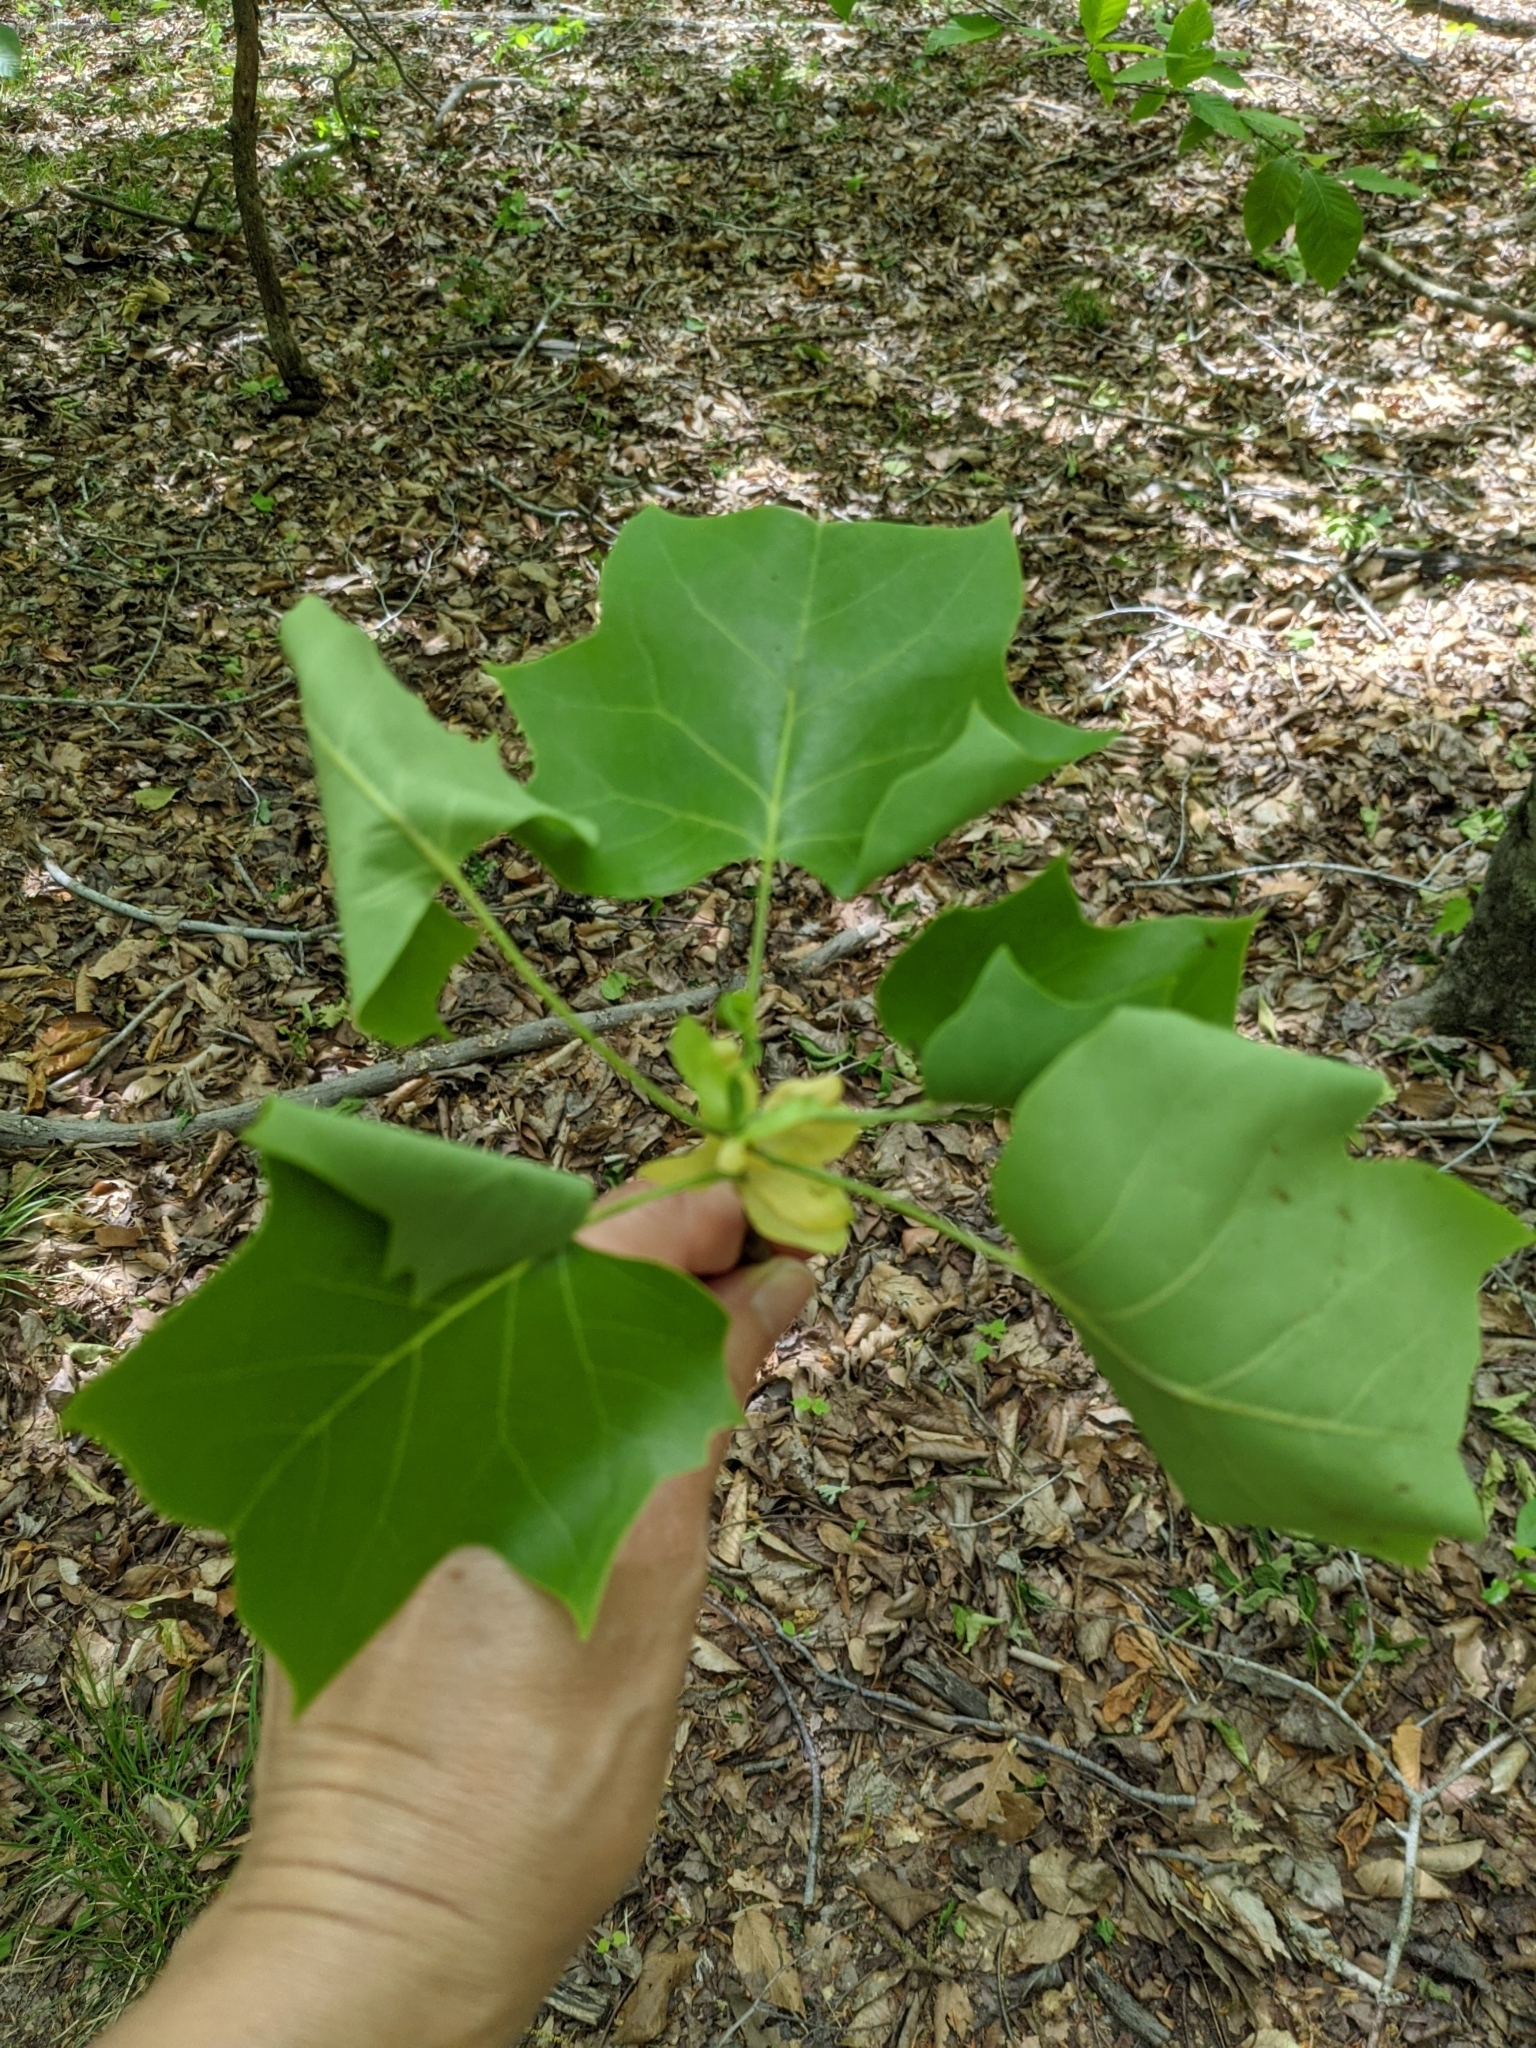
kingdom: Plantae
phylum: Tracheophyta
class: Magnoliopsida
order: Magnoliales
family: Magnoliaceae
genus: Liriodendron
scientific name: Liriodendron tulipifera
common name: Tulip tree
